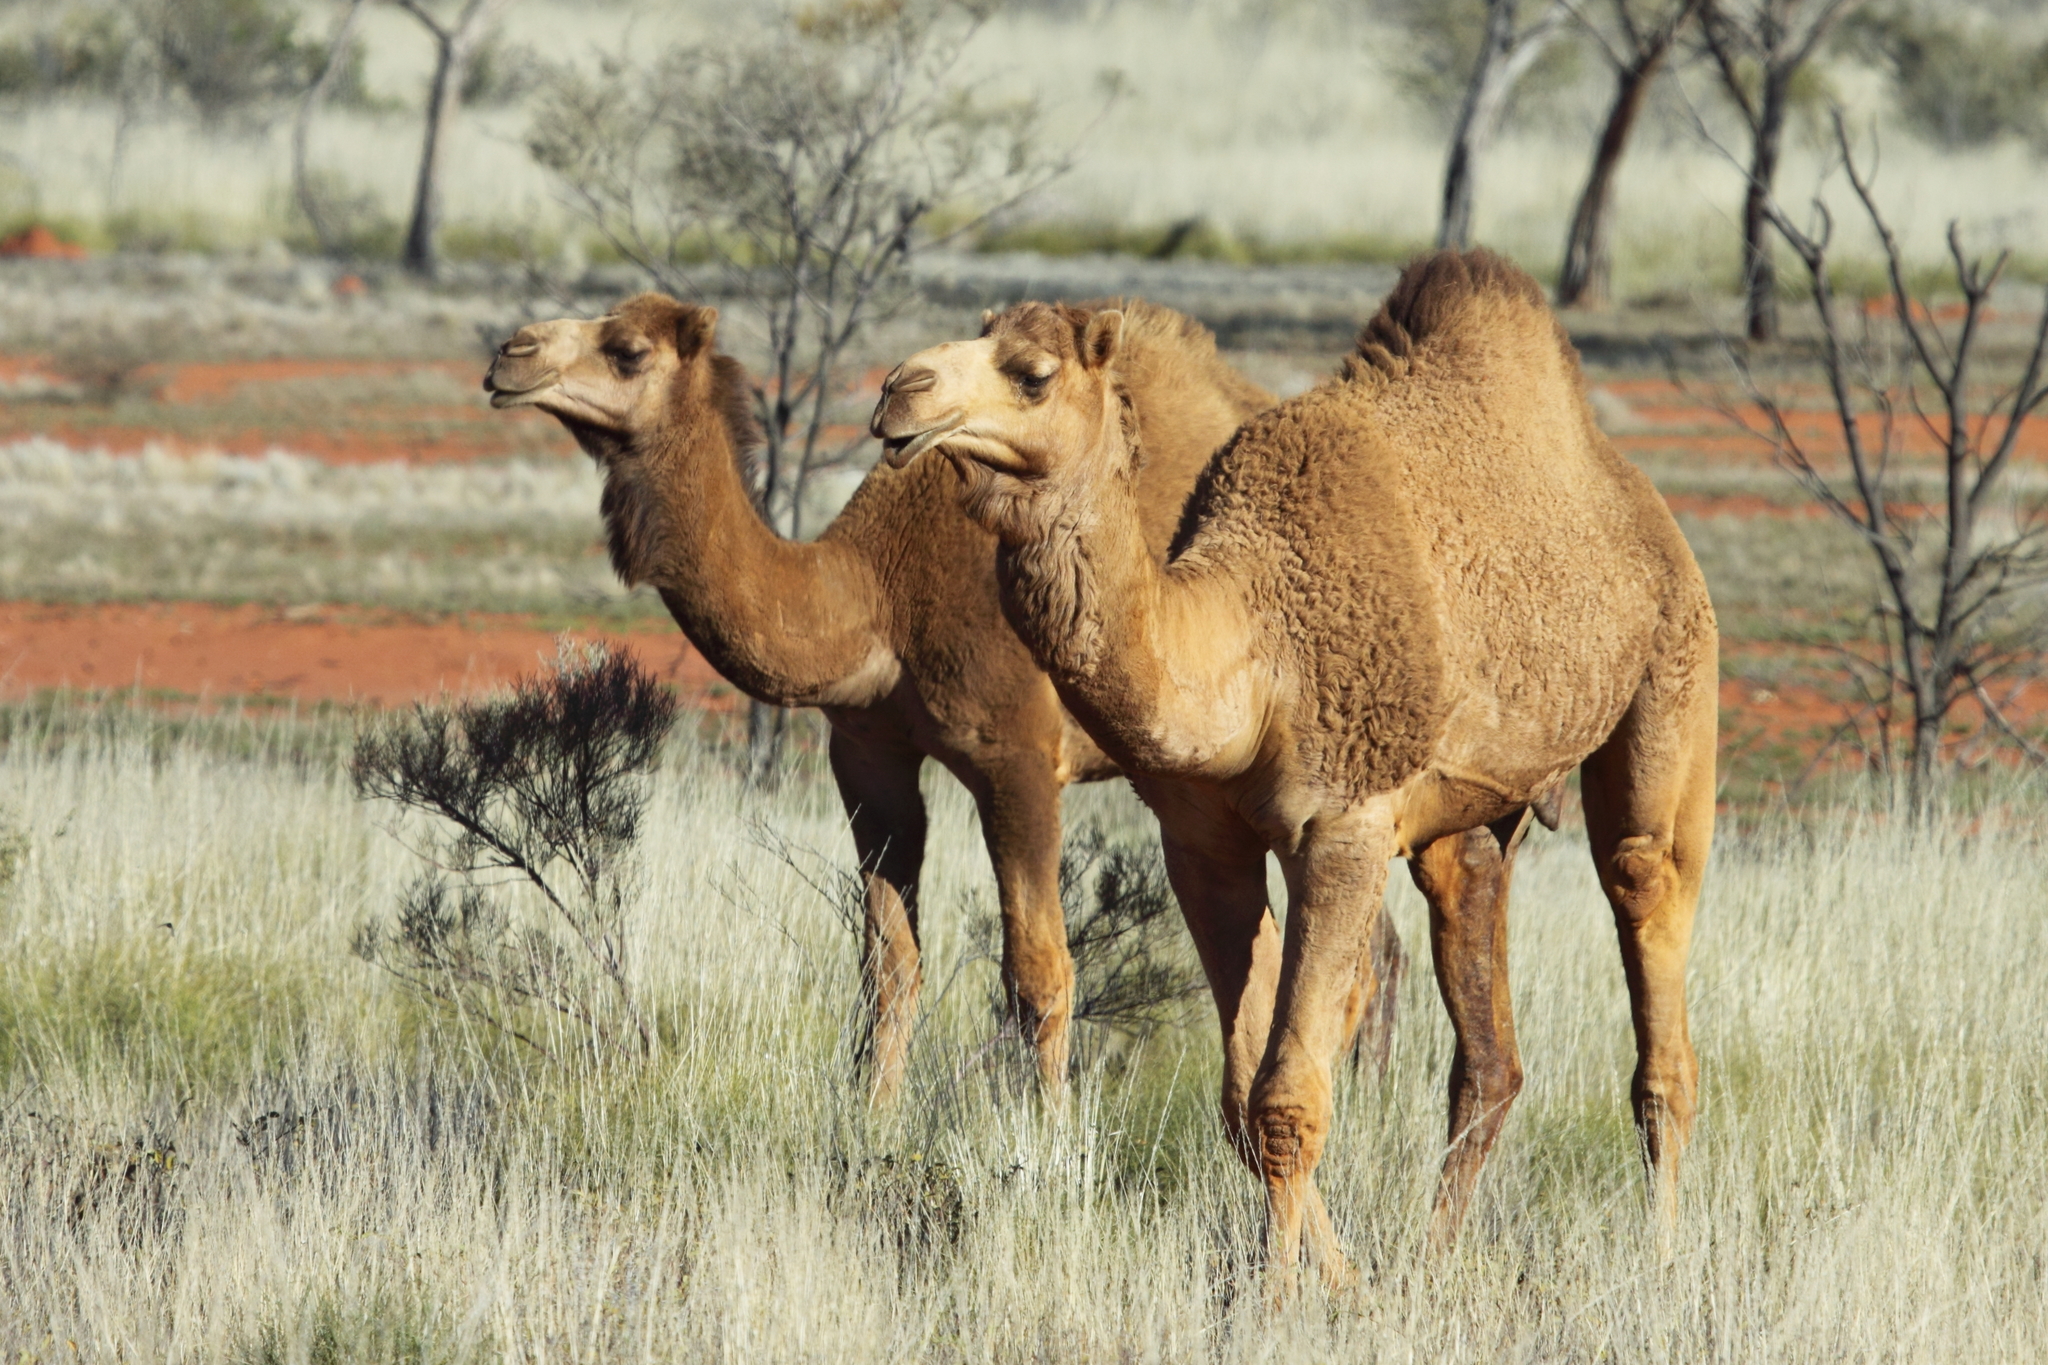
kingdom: Animalia
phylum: Chordata
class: Mammalia
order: Artiodactyla
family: Camelidae
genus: Camelus
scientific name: Camelus dromedarius
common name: One-humped camel
